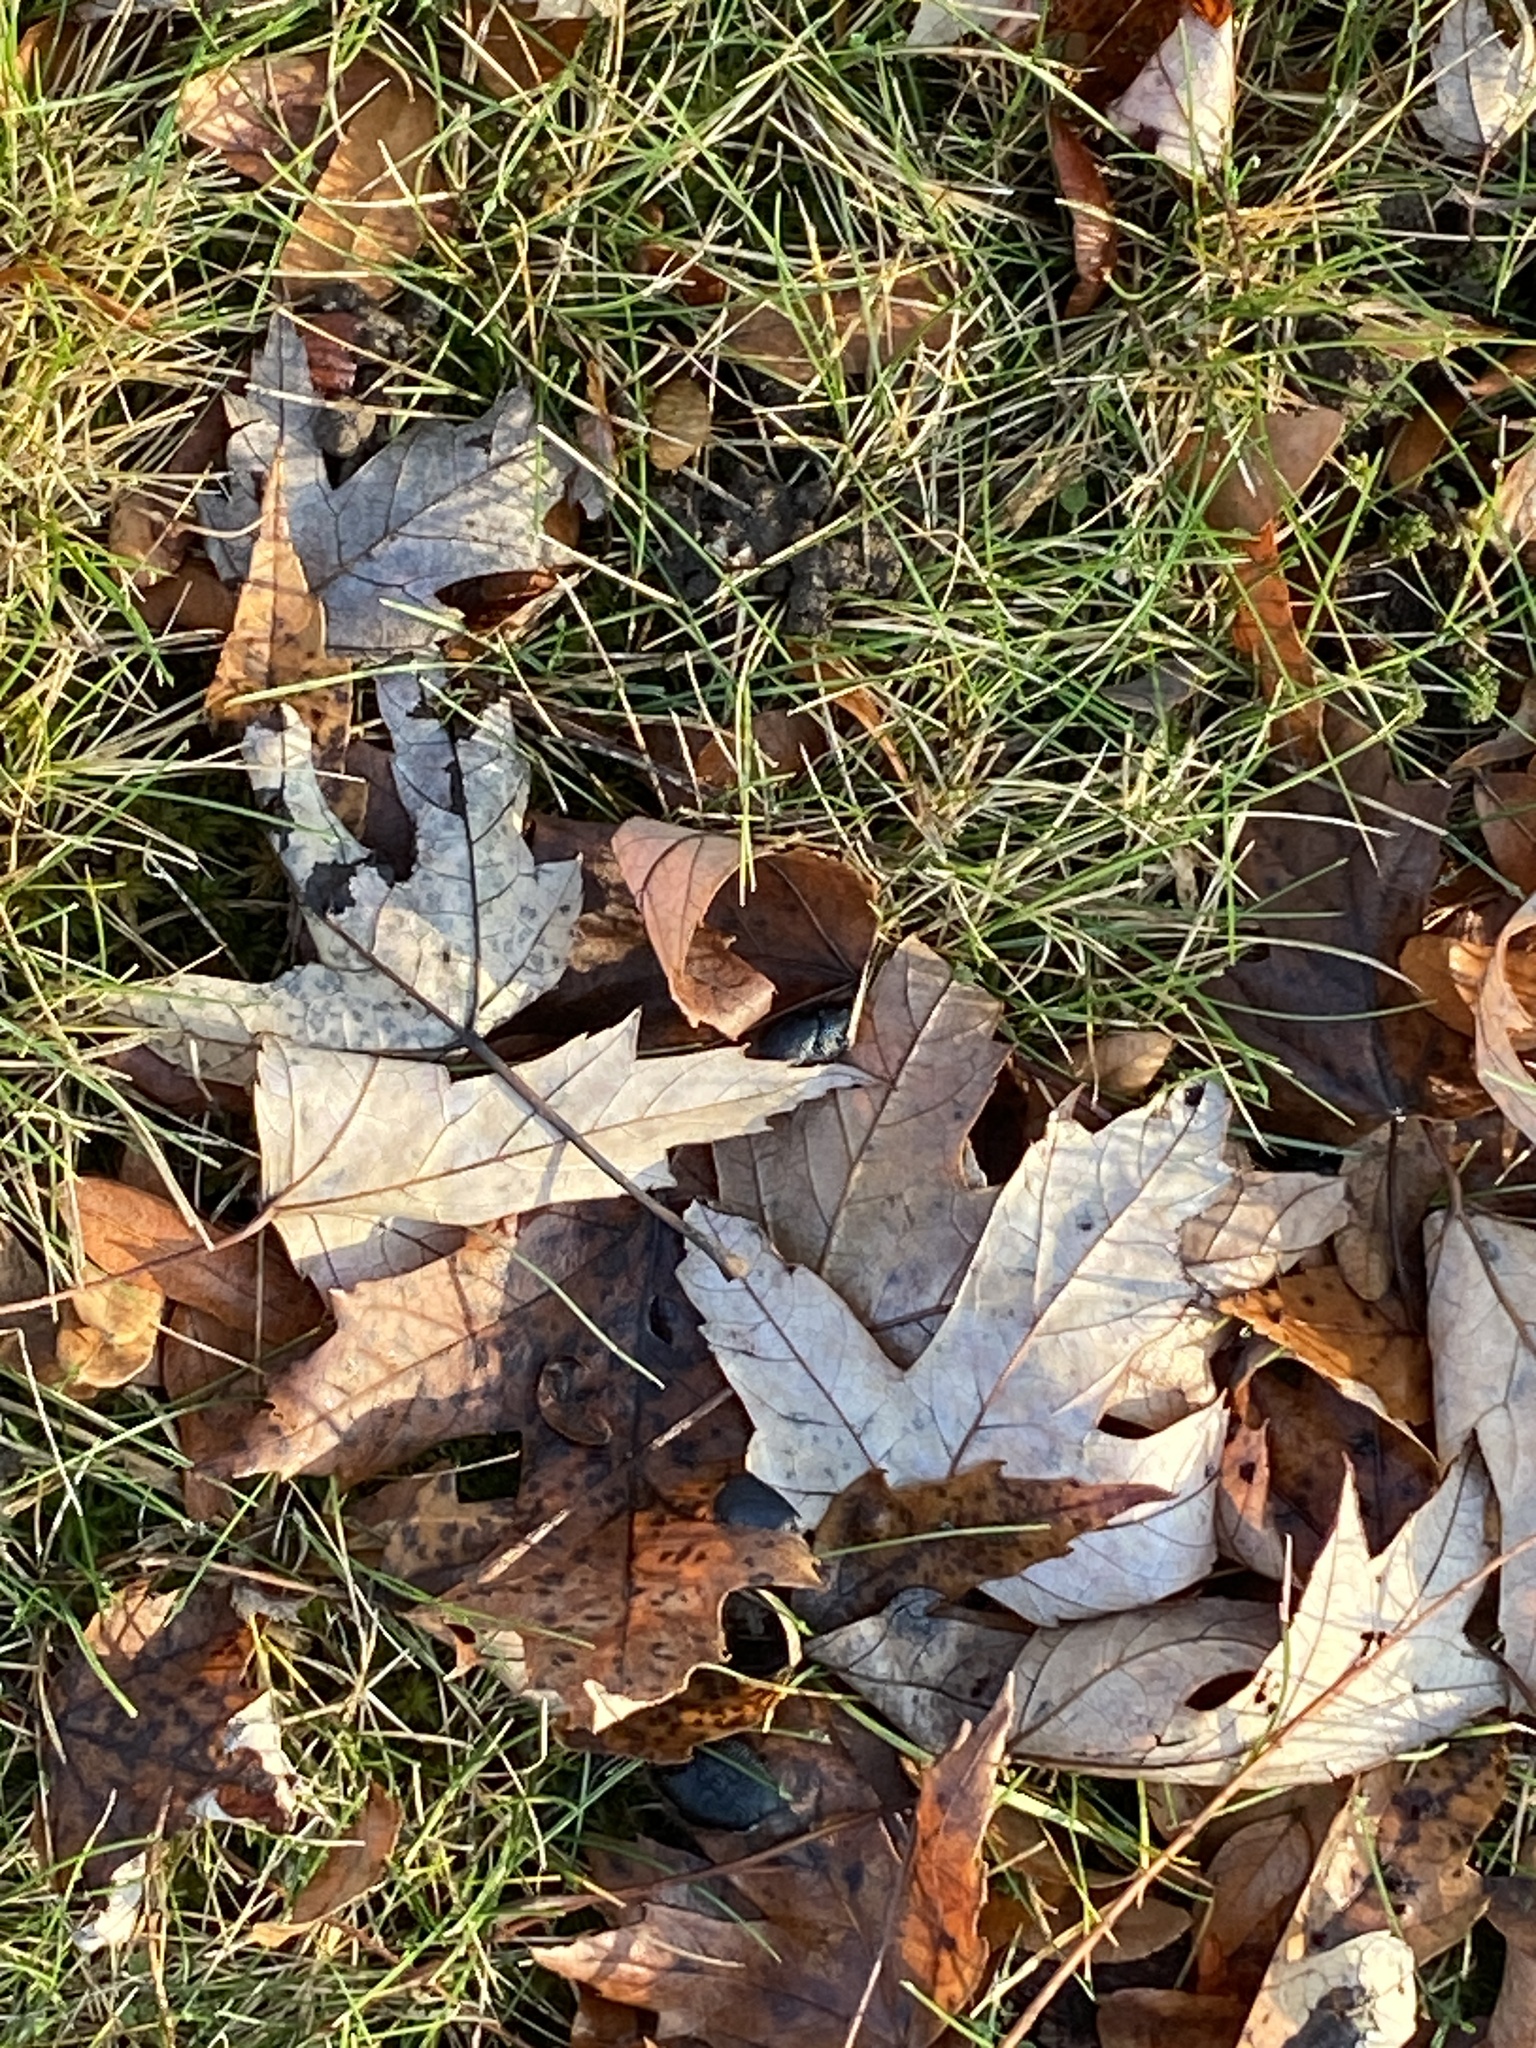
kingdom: Plantae
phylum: Tracheophyta
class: Magnoliopsida
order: Sapindales
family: Sapindaceae
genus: Acer
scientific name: Acer saccharinum
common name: Silver maple
